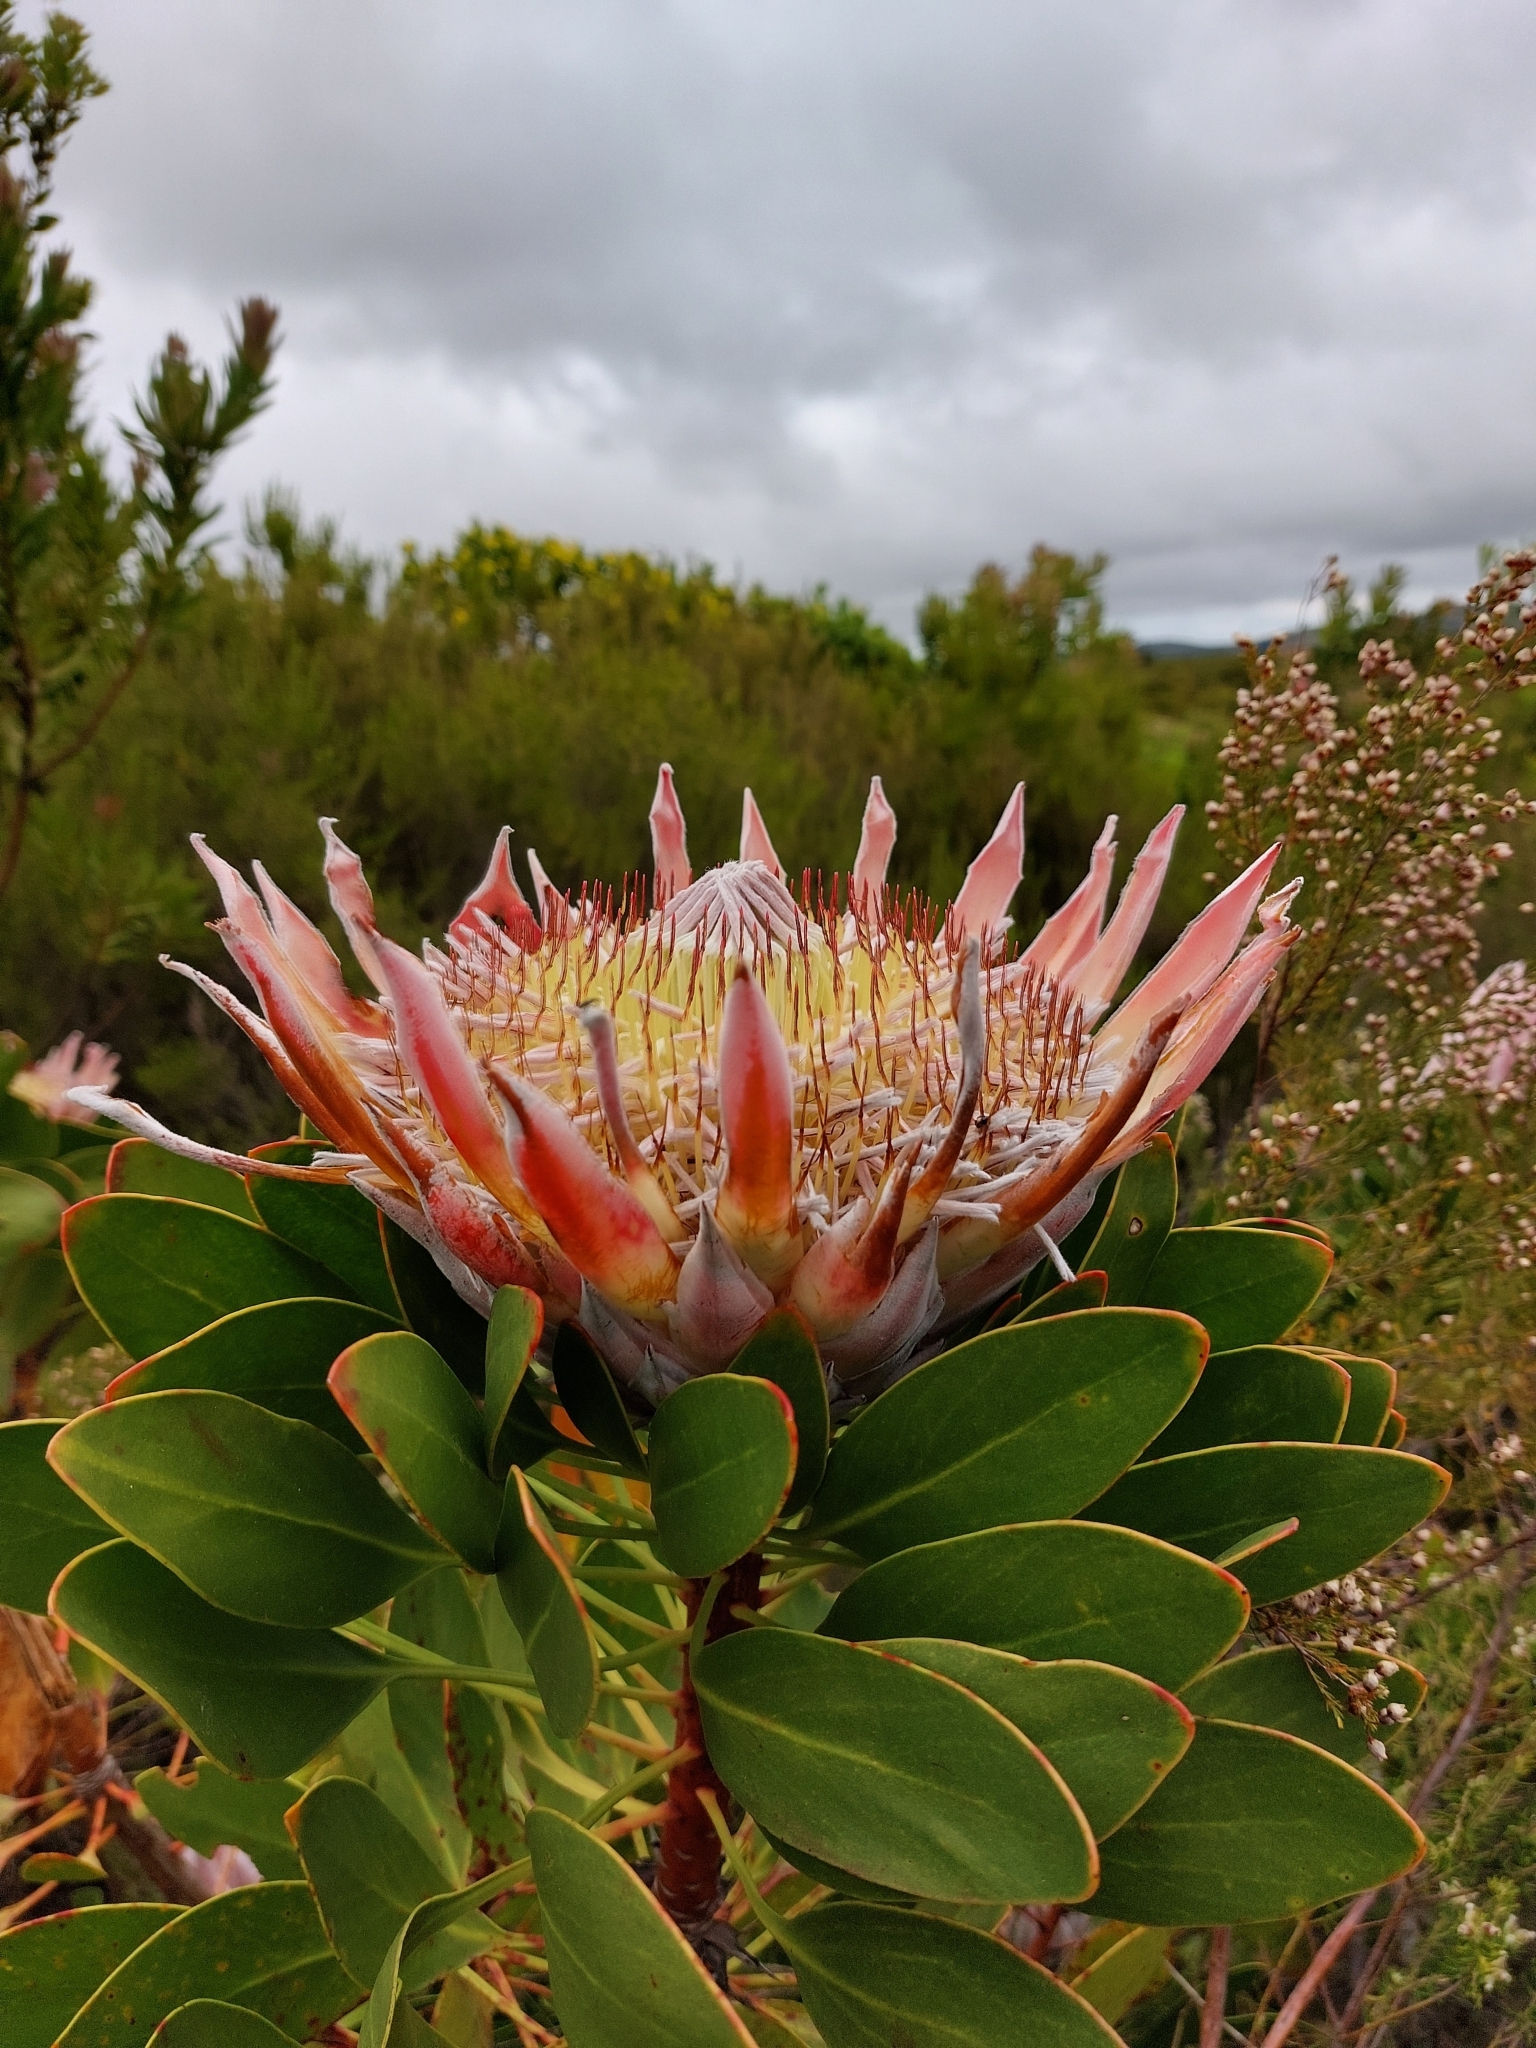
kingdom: Plantae
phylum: Tracheophyta
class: Magnoliopsida
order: Proteales
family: Proteaceae
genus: Protea
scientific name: Protea cynaroides
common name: King protea
